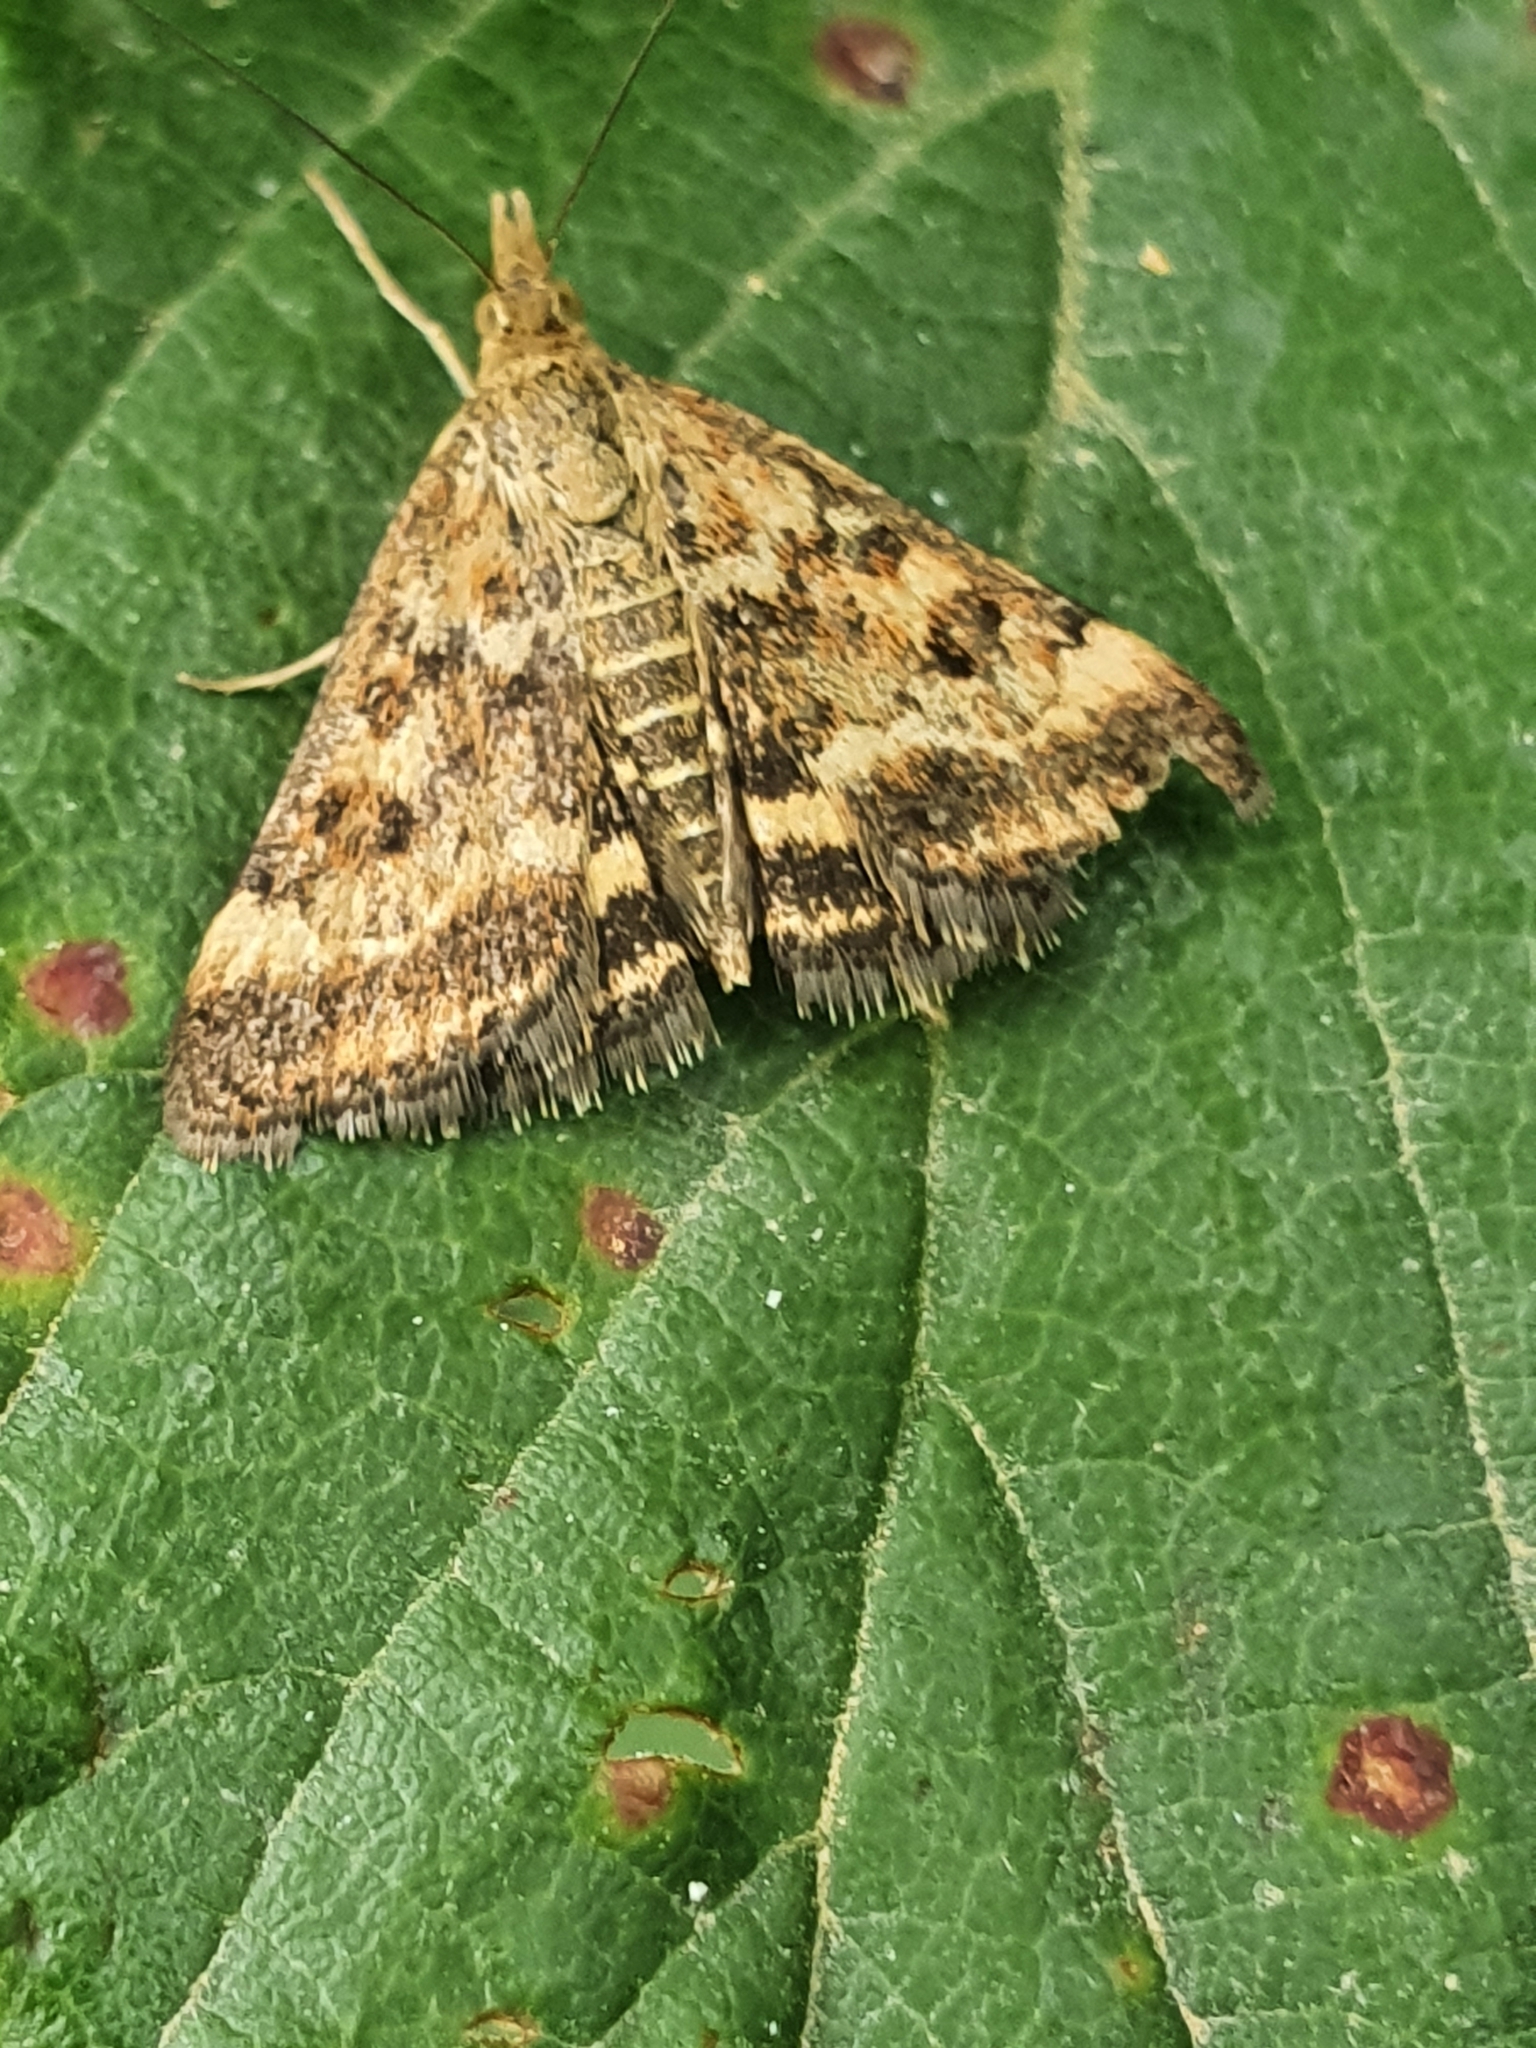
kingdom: Animalia
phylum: Arthropoda
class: Insecta
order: Lepidoptera
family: Crambidae
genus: Pyrausta
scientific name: Pyrausta despicata
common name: Straw-barred pearl
